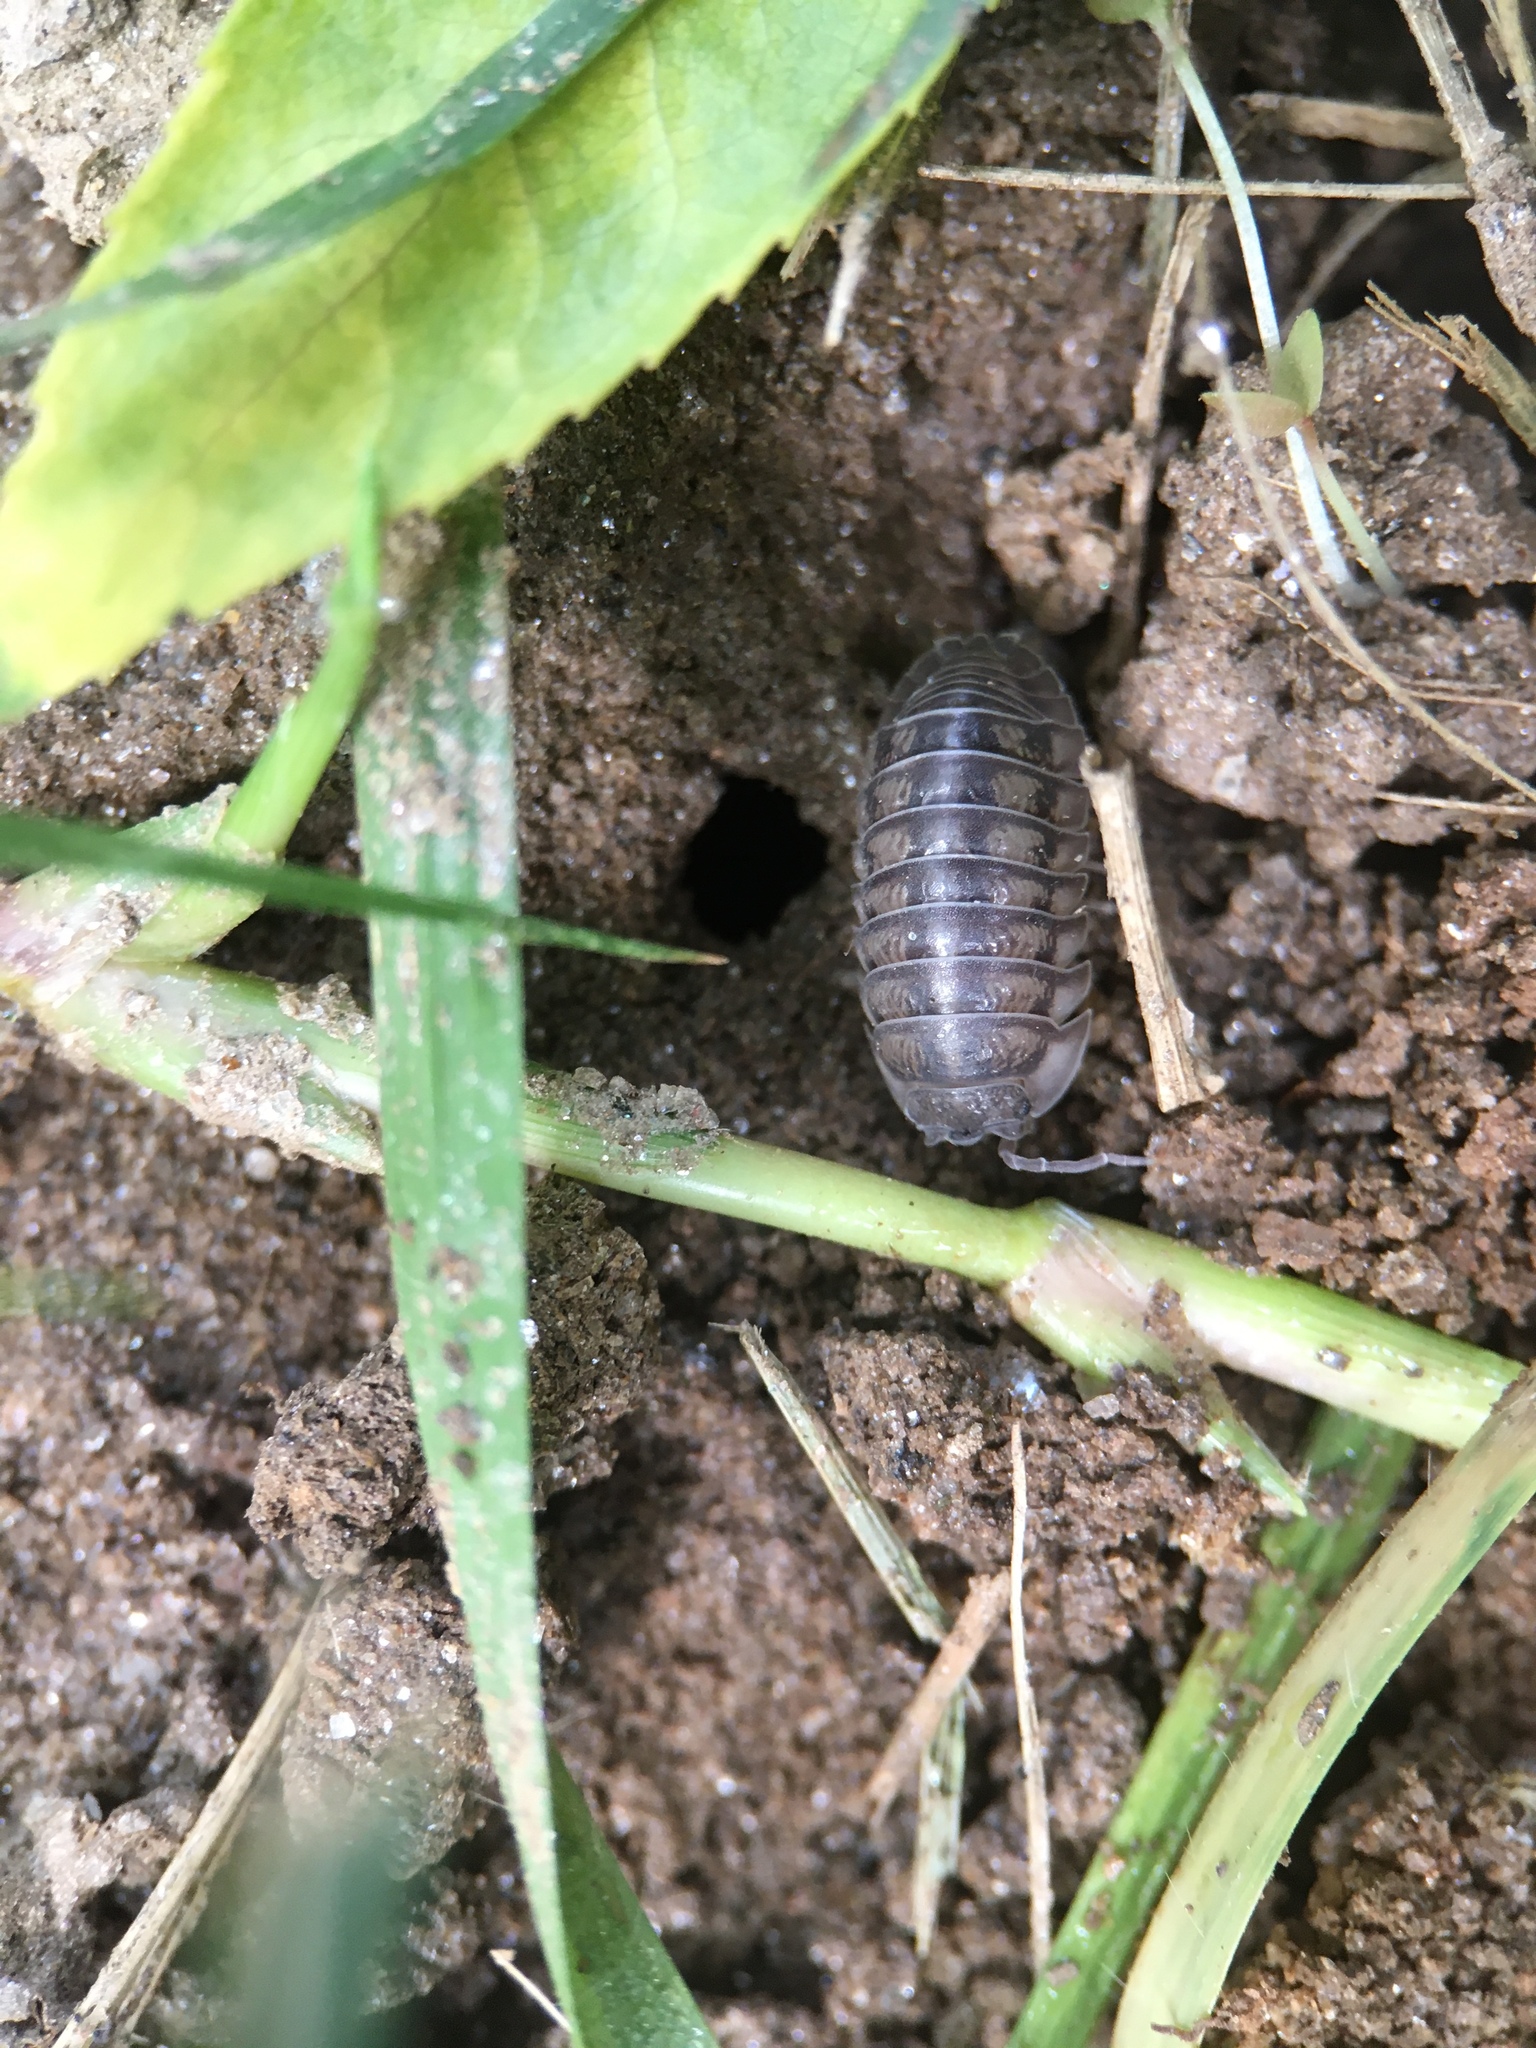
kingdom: Animalia
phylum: Arthropoda
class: Malacostraca
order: Isopoda
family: Armadillidiidae
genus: Armadillidium
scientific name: Armadillidium nasatum
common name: Isopod
